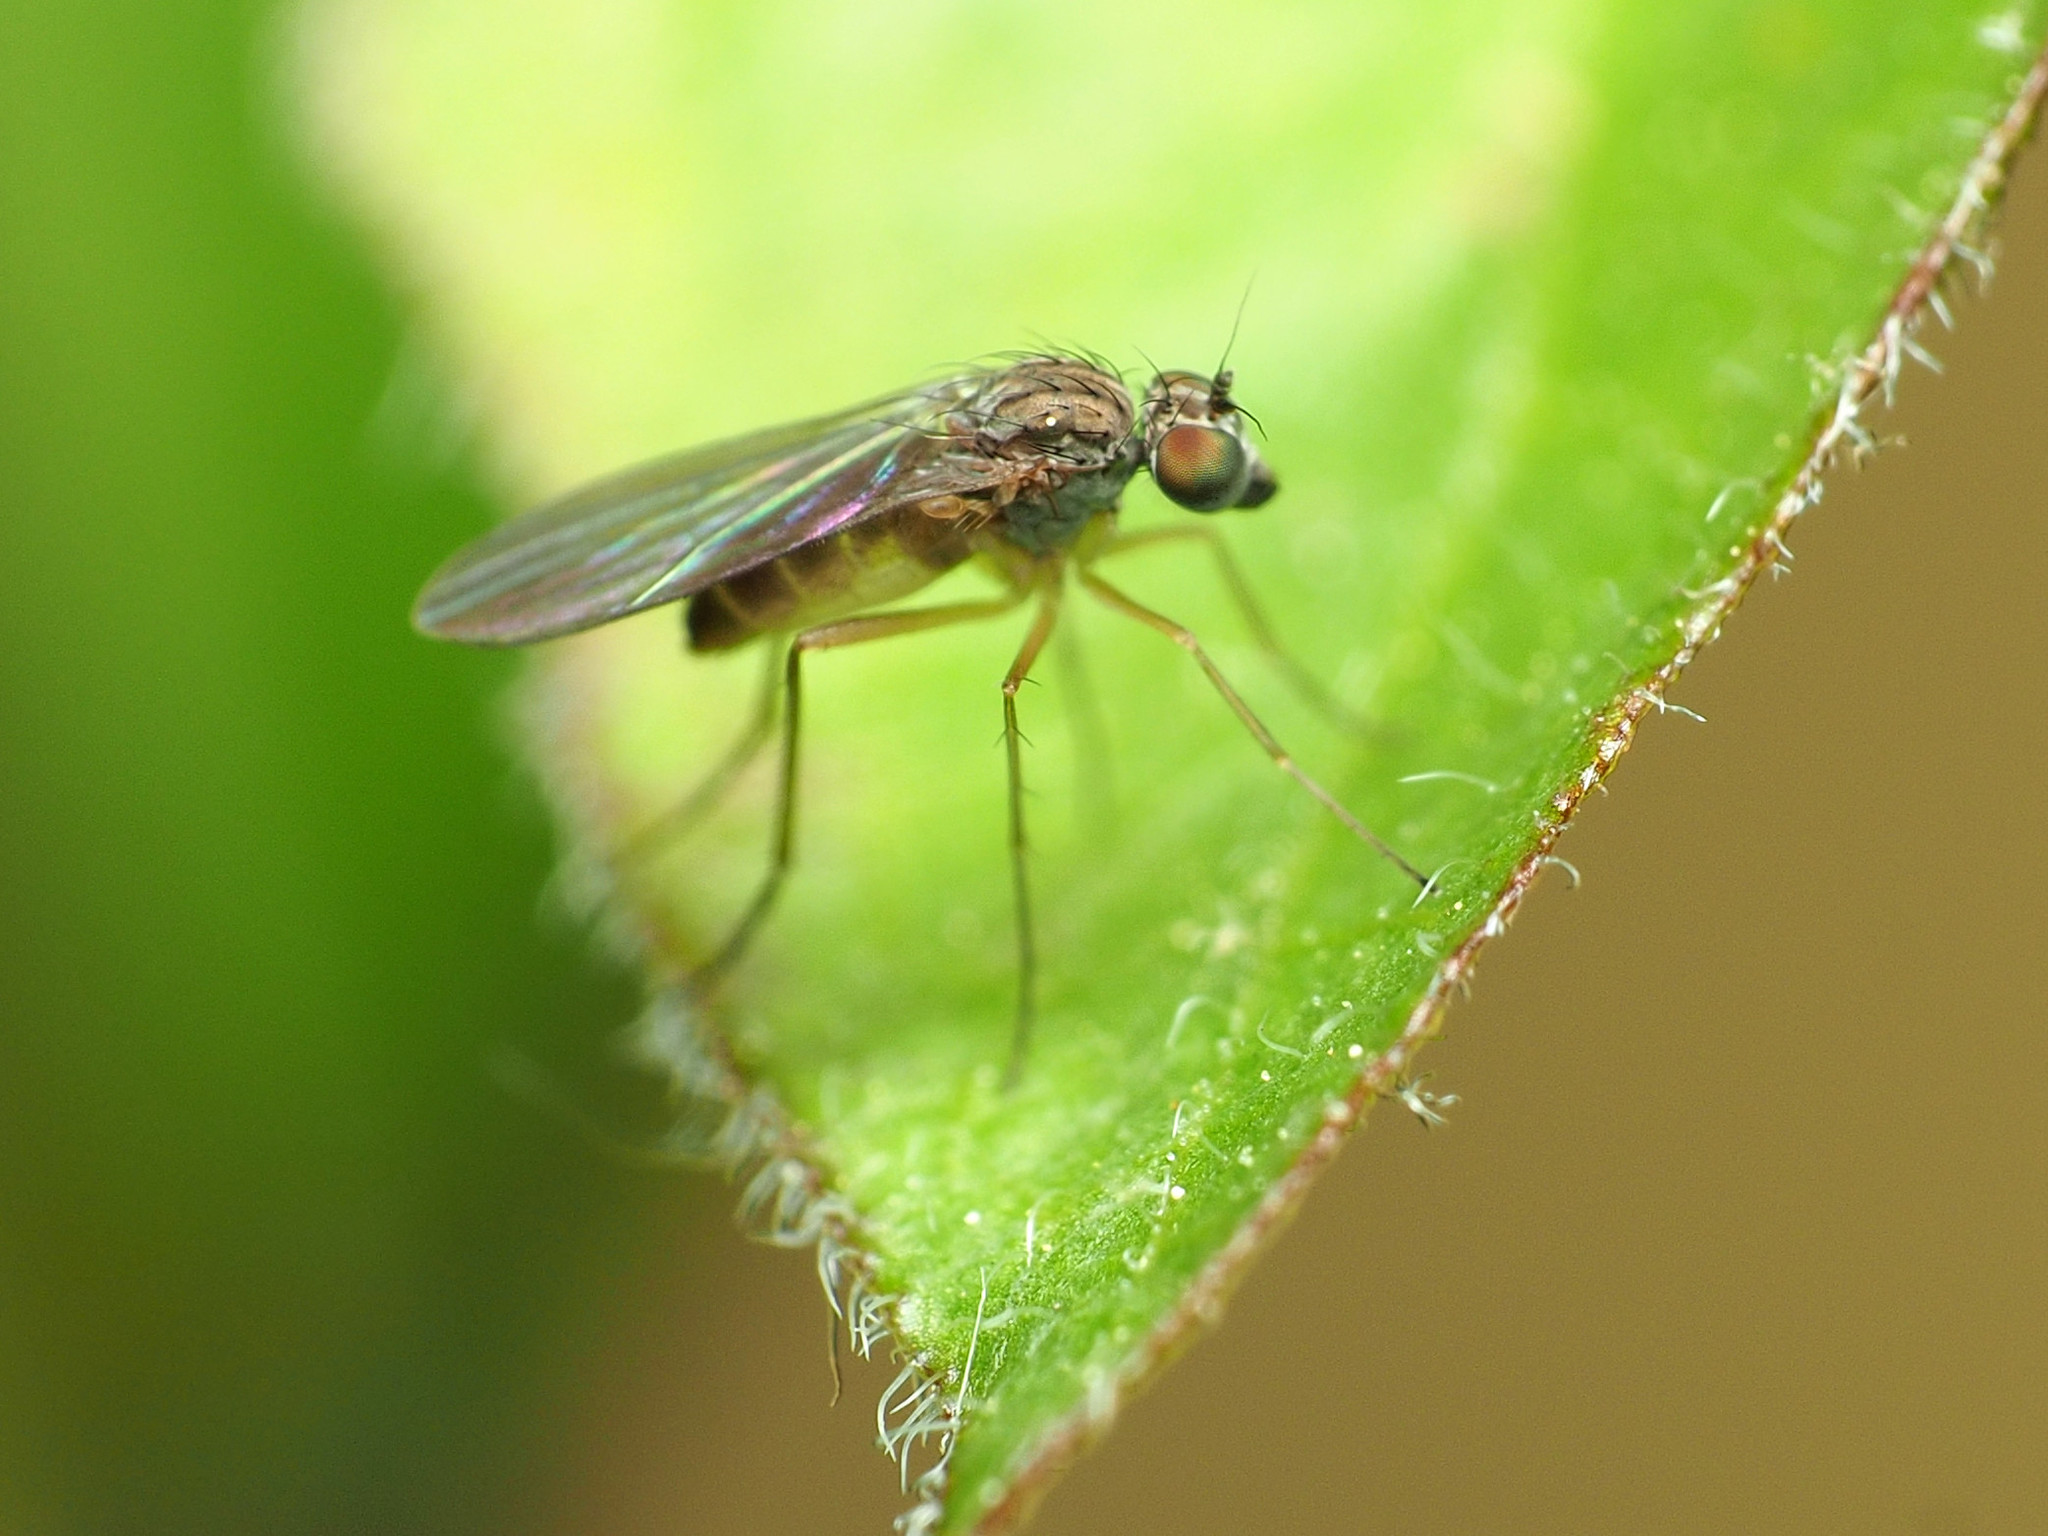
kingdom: Animalia
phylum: Arthropoda
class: Insecta
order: Diptera
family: Dolichopodidae
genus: Sympycnus
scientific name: Sympycnus lineatus
